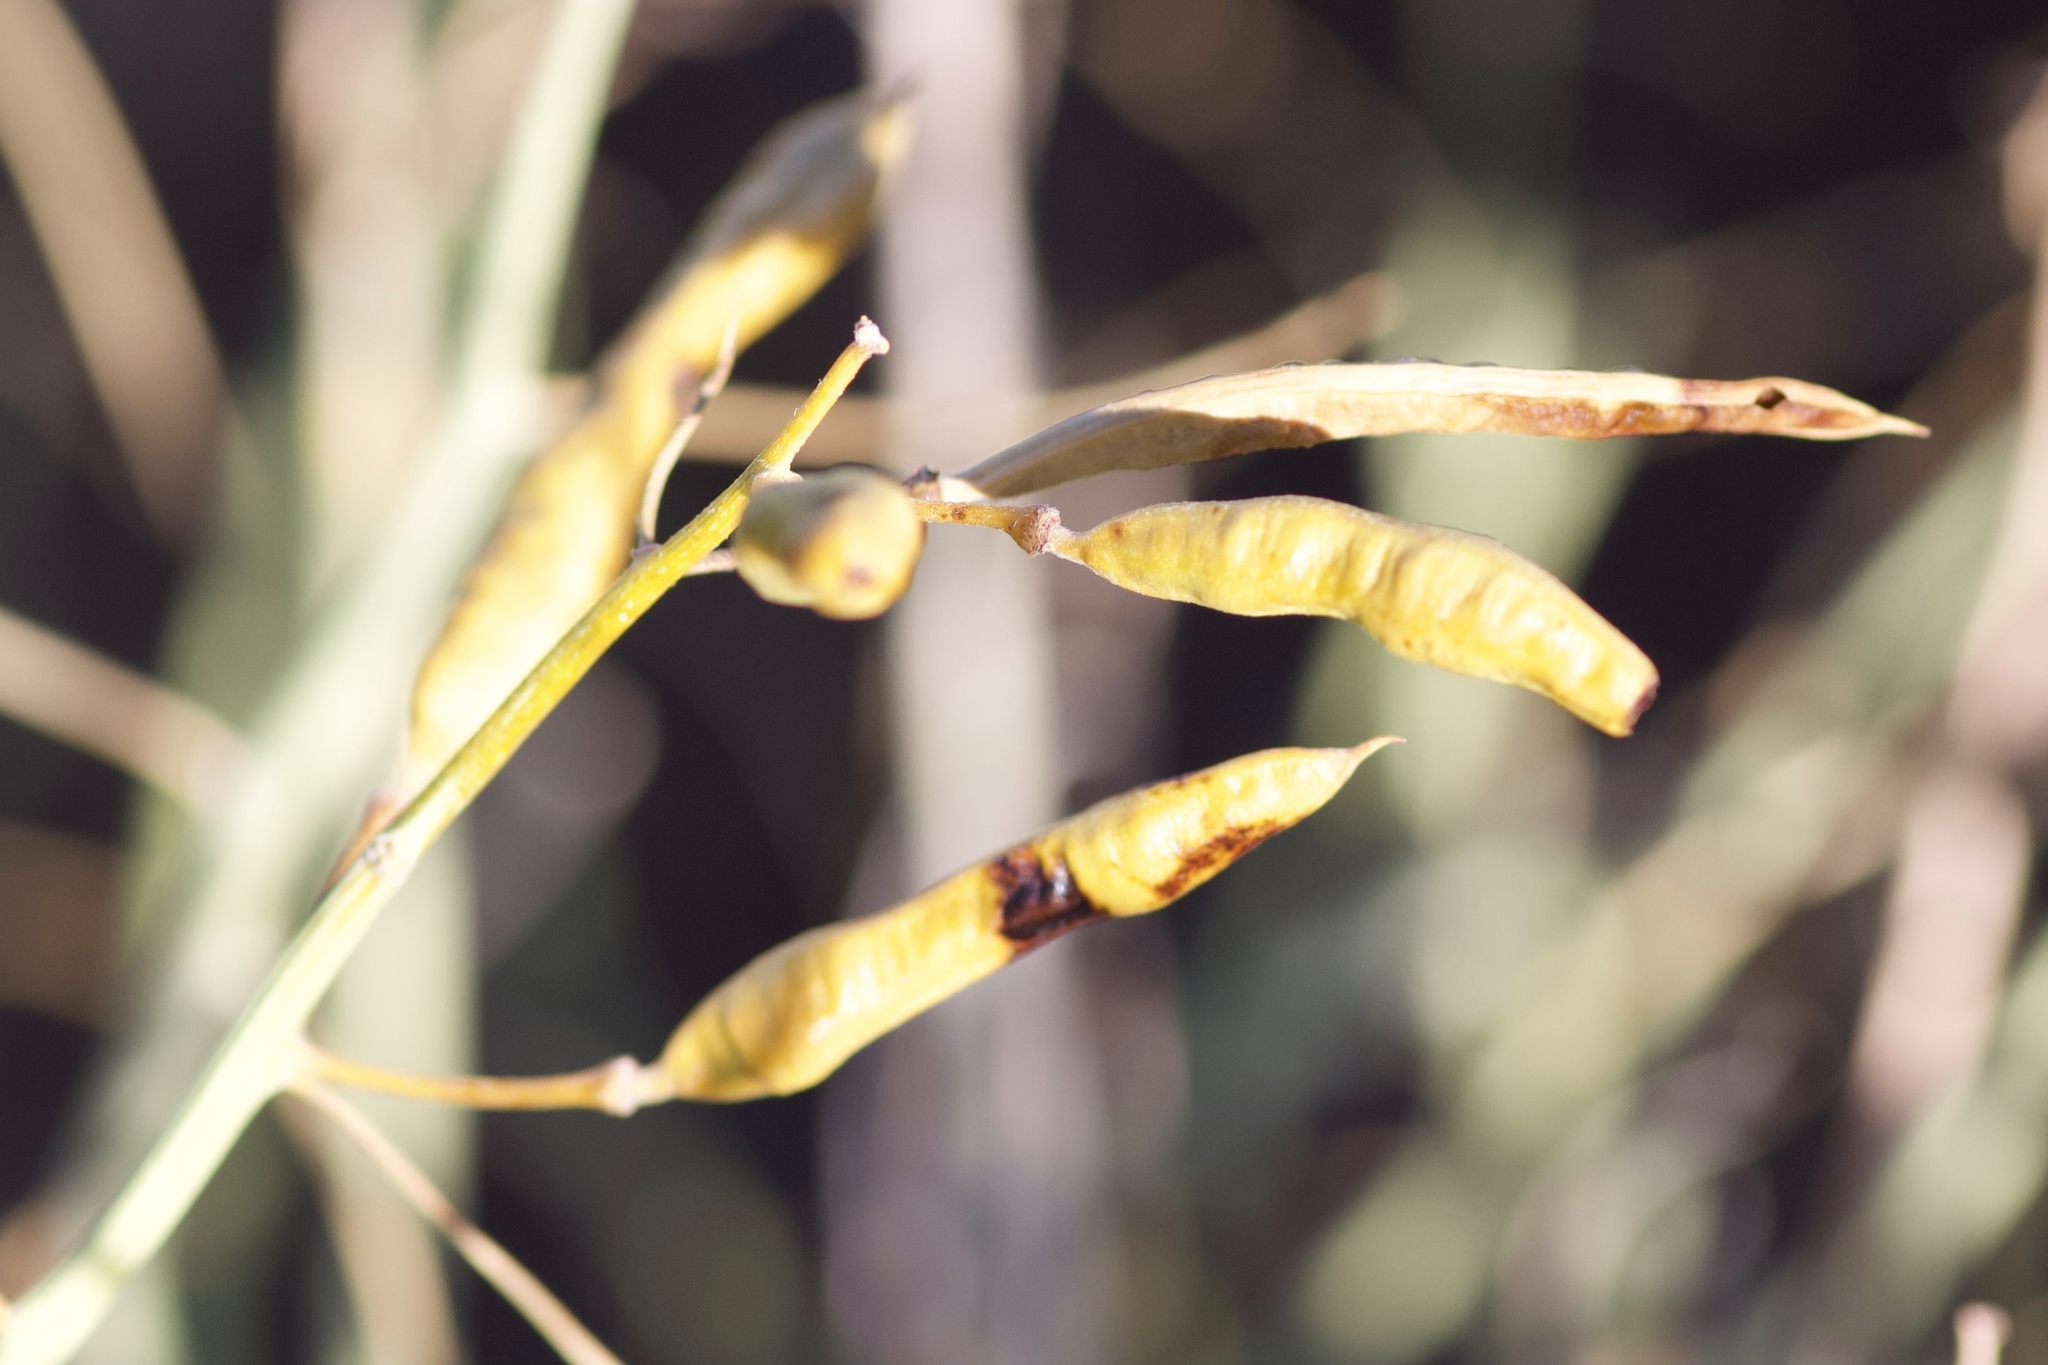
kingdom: Plantae
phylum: Tracheophyta
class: Magnoliopsida
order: Fabales
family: Fabaceae
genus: Senna
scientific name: Senna armata
